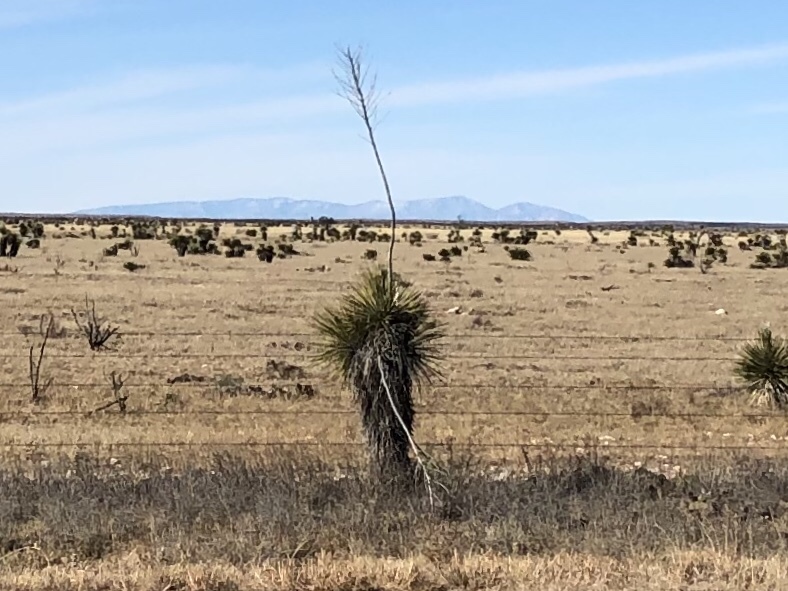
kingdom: Plantae
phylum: Tracheophyta
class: Liliopsida
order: Asparagales
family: Asparagaceae
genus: Yucca
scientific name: Yucca elata
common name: Palmella
